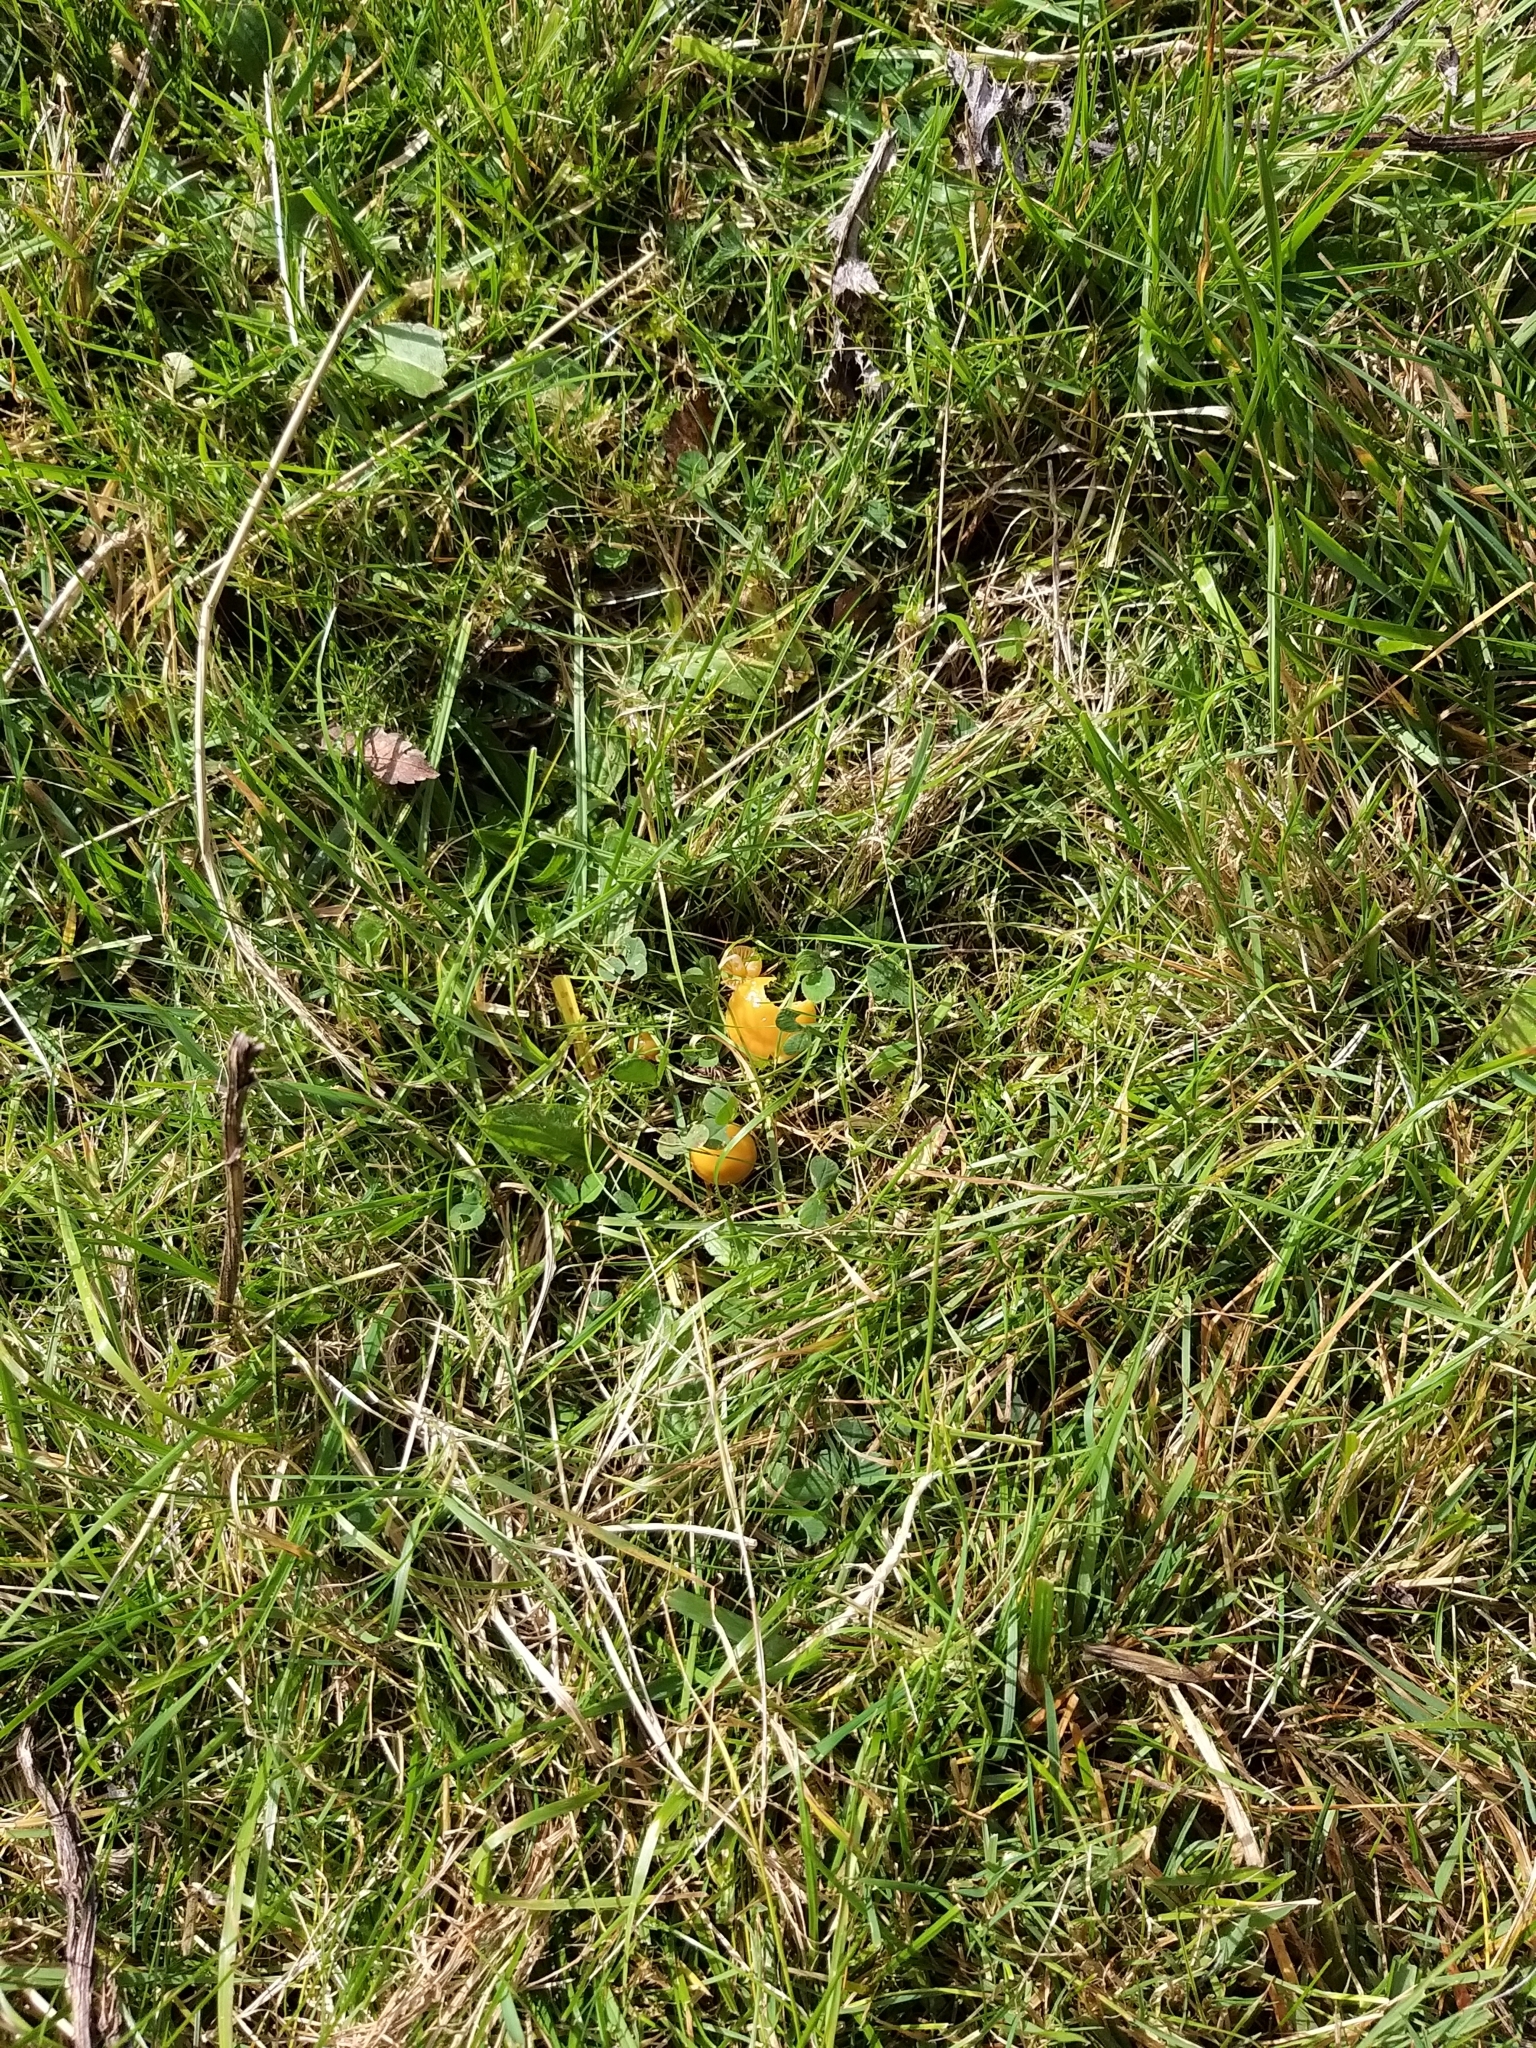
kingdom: Fungi
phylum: Basidiomycota
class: Agaricomycetes
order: Agaricales
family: Hygrophoraceae
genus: Gliophorus
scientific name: Gliophorus psittacinus
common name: Parrot wax-cap
